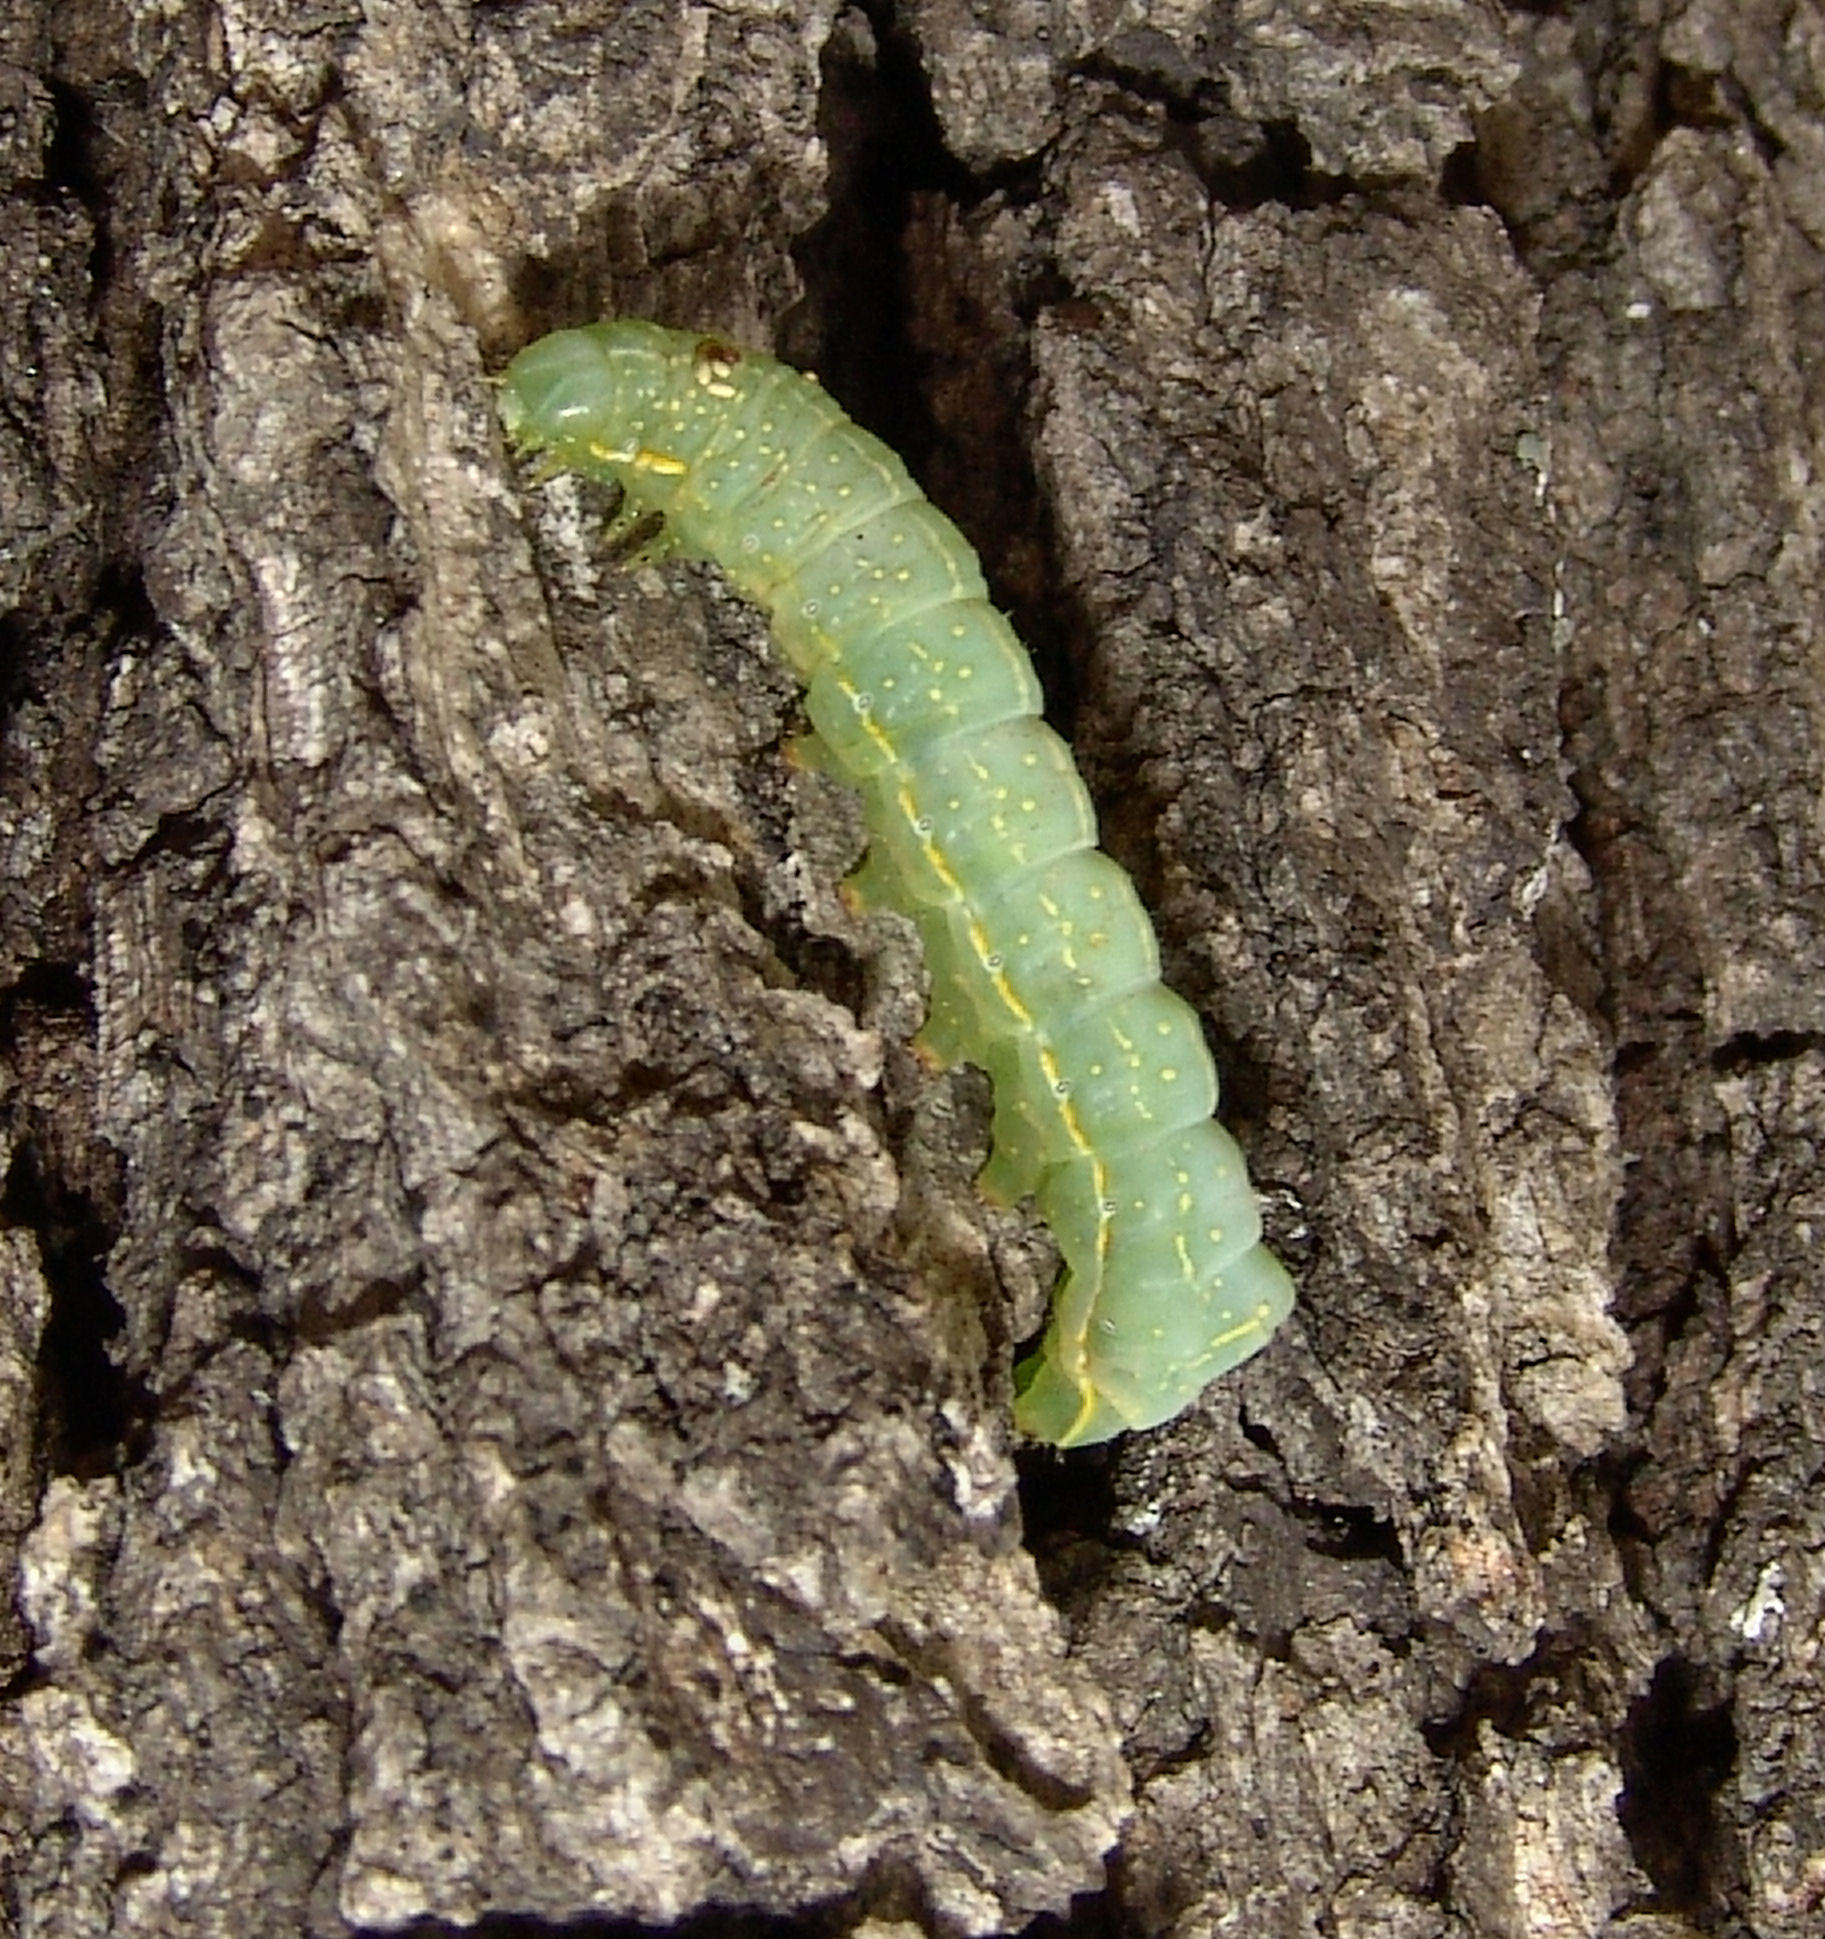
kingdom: Animalia
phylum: Arthropoda
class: Insecta
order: Lepidoptera
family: Noctuidae
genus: Amphipyra
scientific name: Amphipyra pyramidoides
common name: American copper underwing
